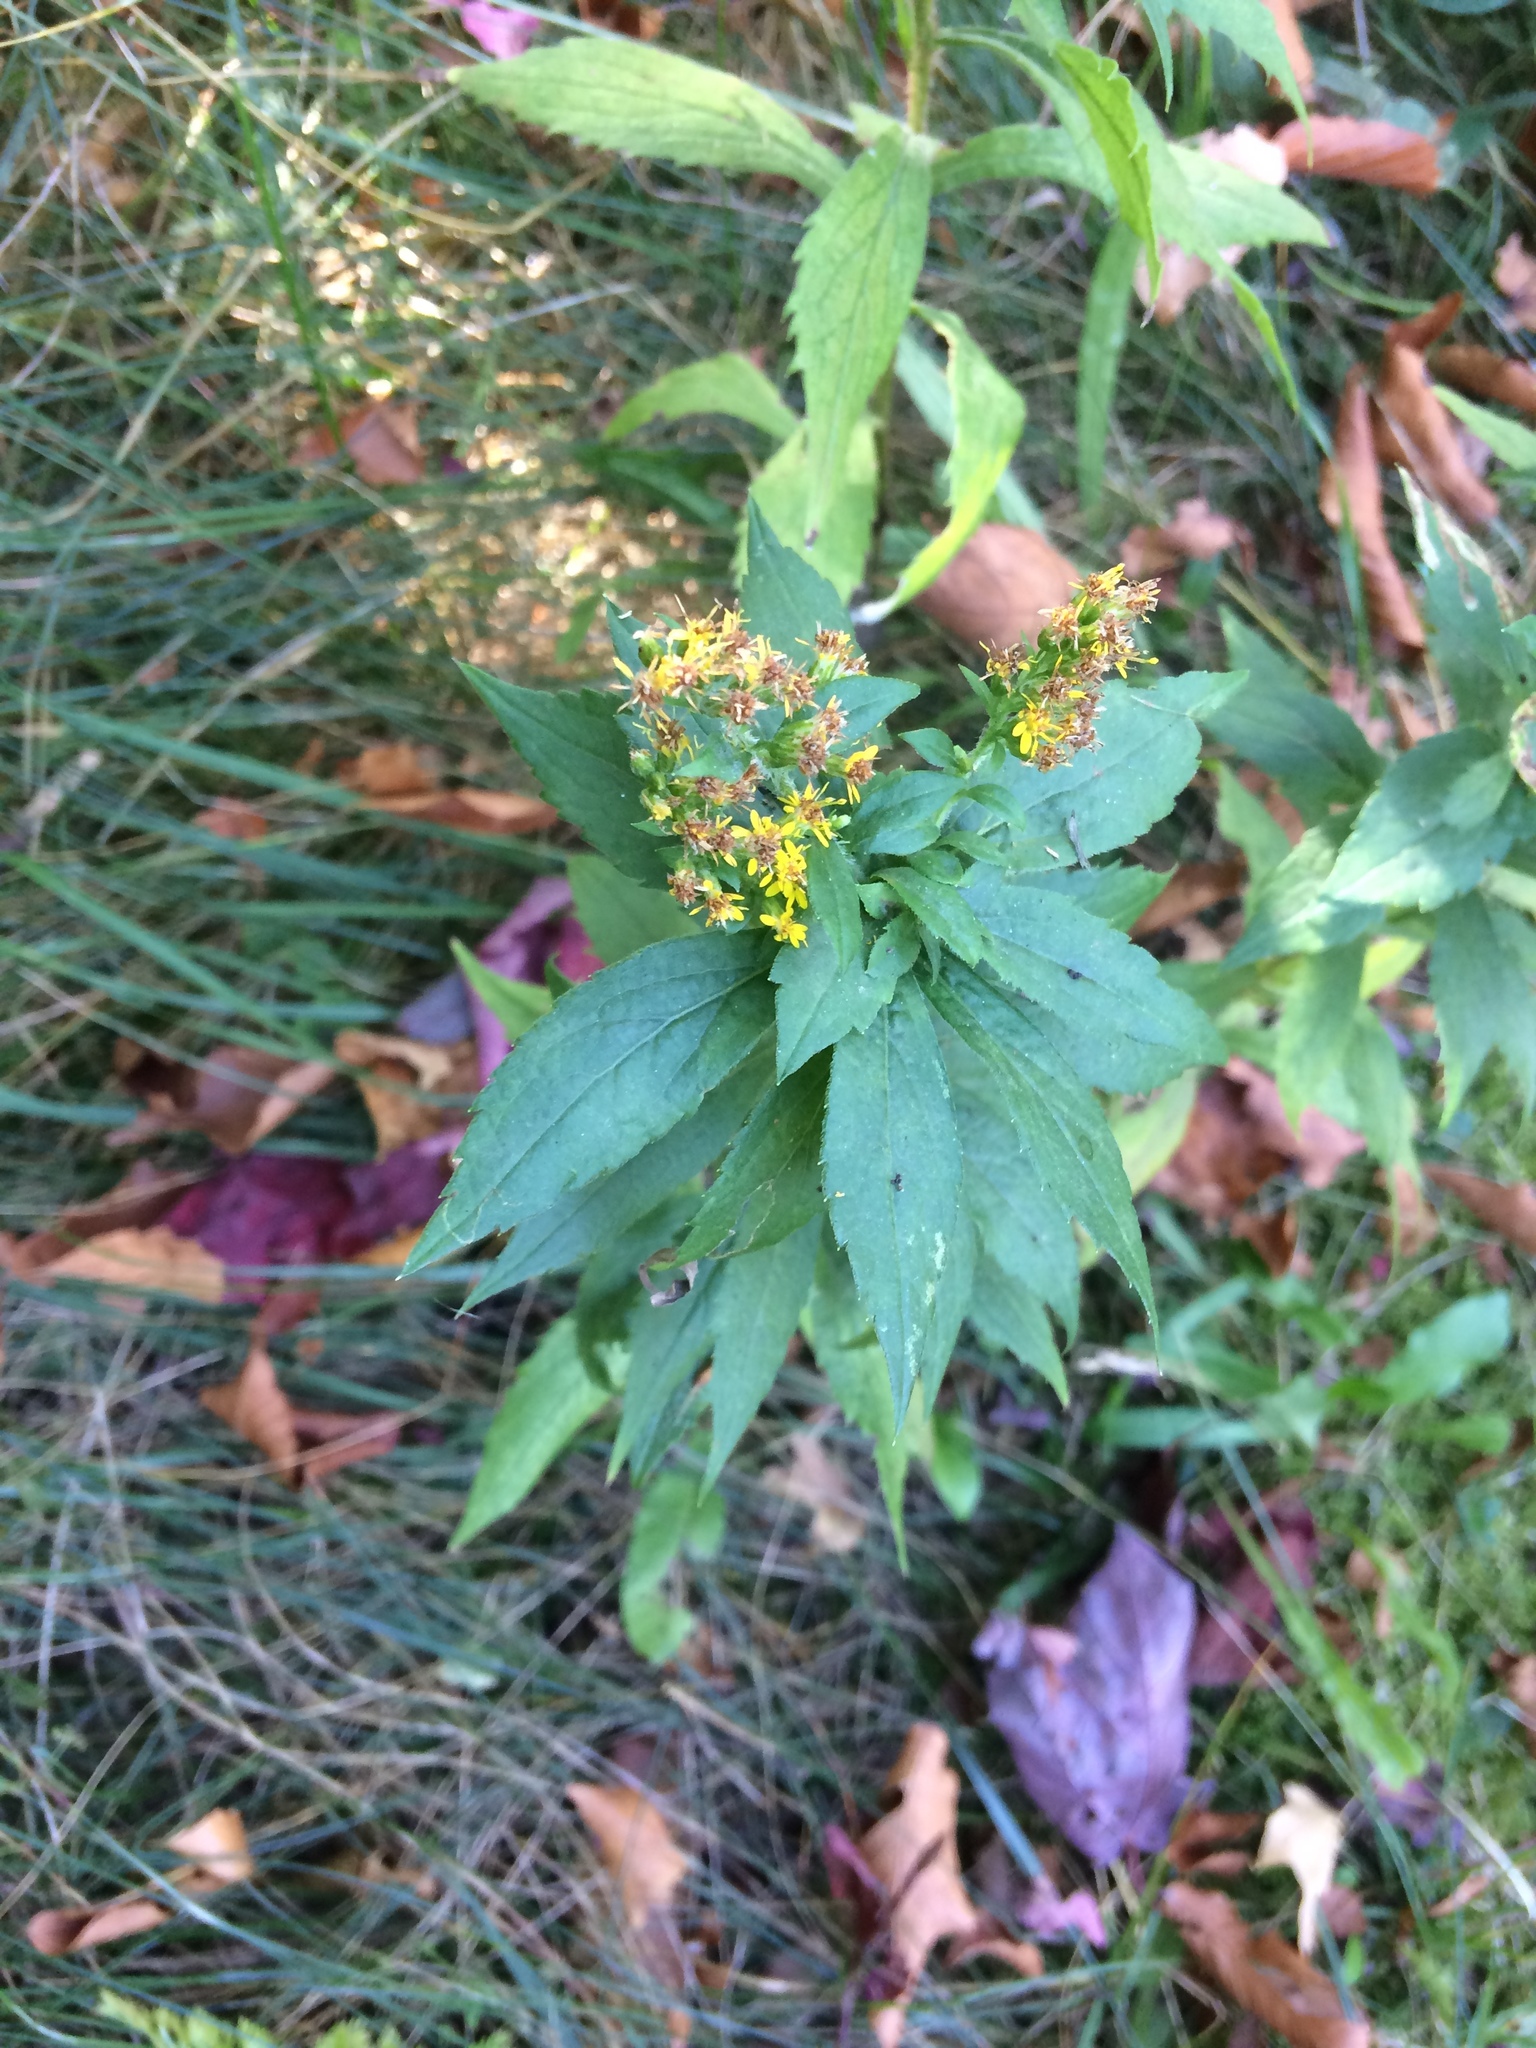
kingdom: Plantae
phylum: Tracheophyta
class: Magnoliopsida
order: Asterales
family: Asteraceae
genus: Solidago
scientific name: Solidago rugosa
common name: Rough-stemmed goldenrod
